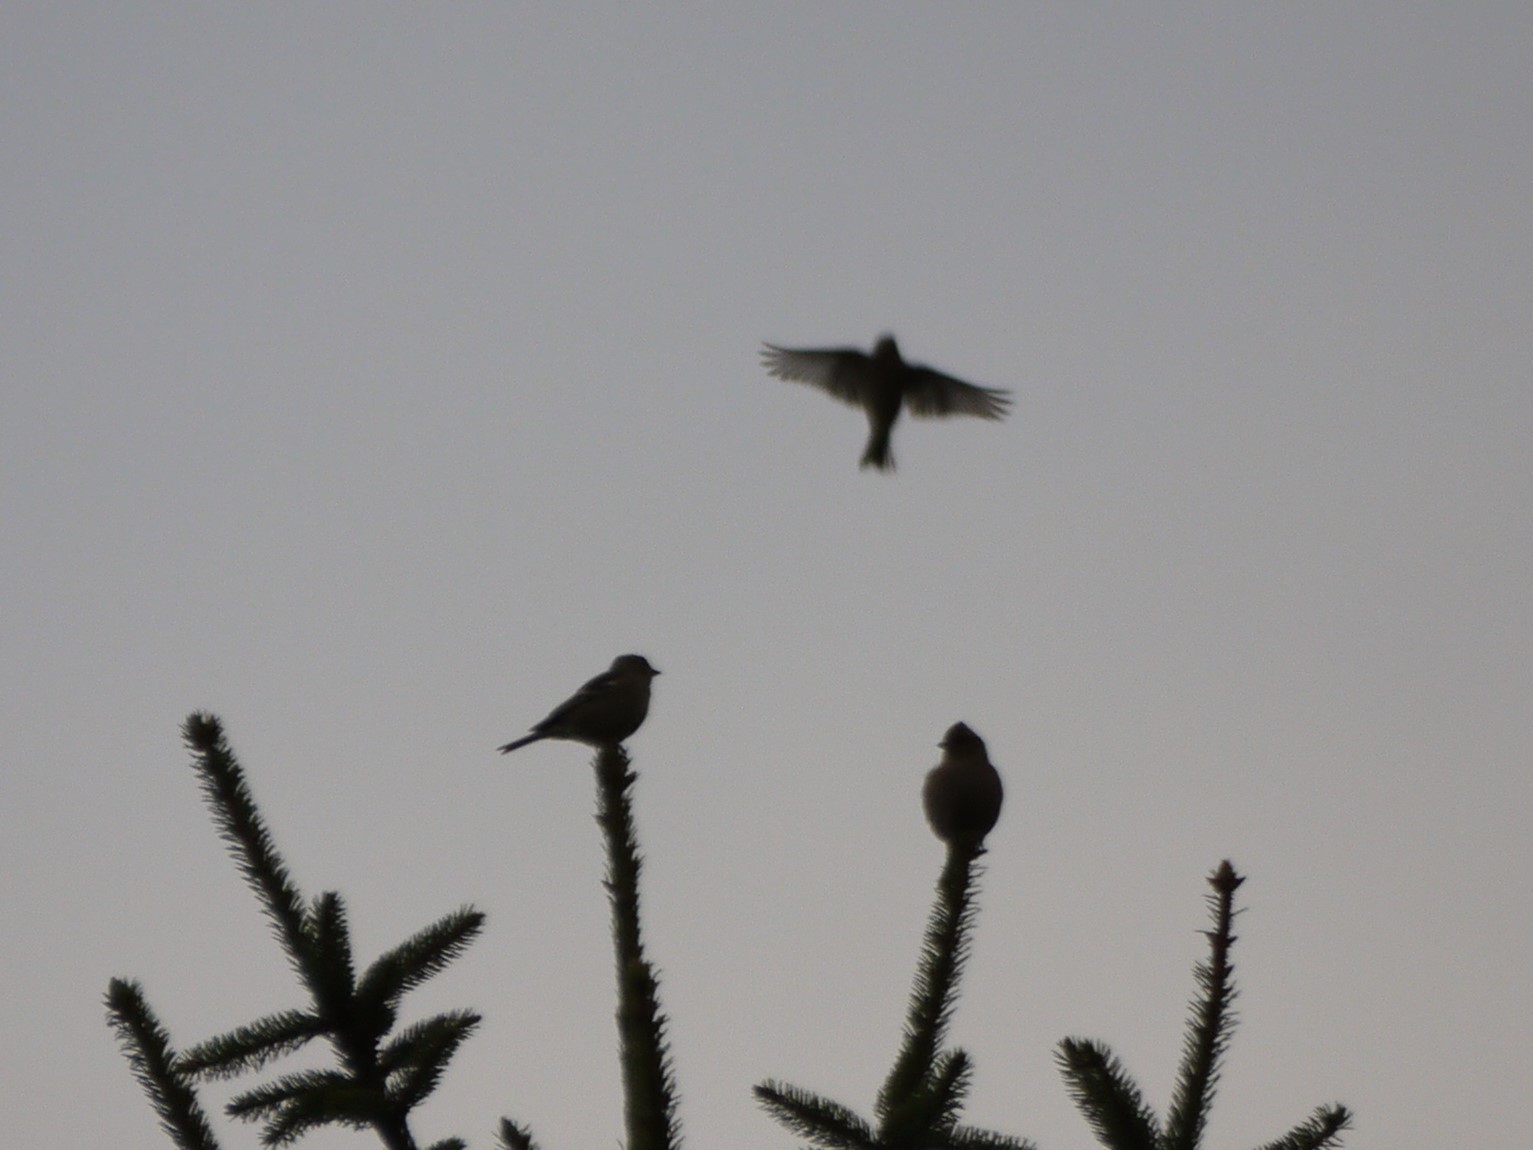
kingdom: Animalia
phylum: Chordata
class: Aves
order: Passeriformes
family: Fringillidae
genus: Fringilla
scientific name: Fringilla coelebs
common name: Common chaffinch
